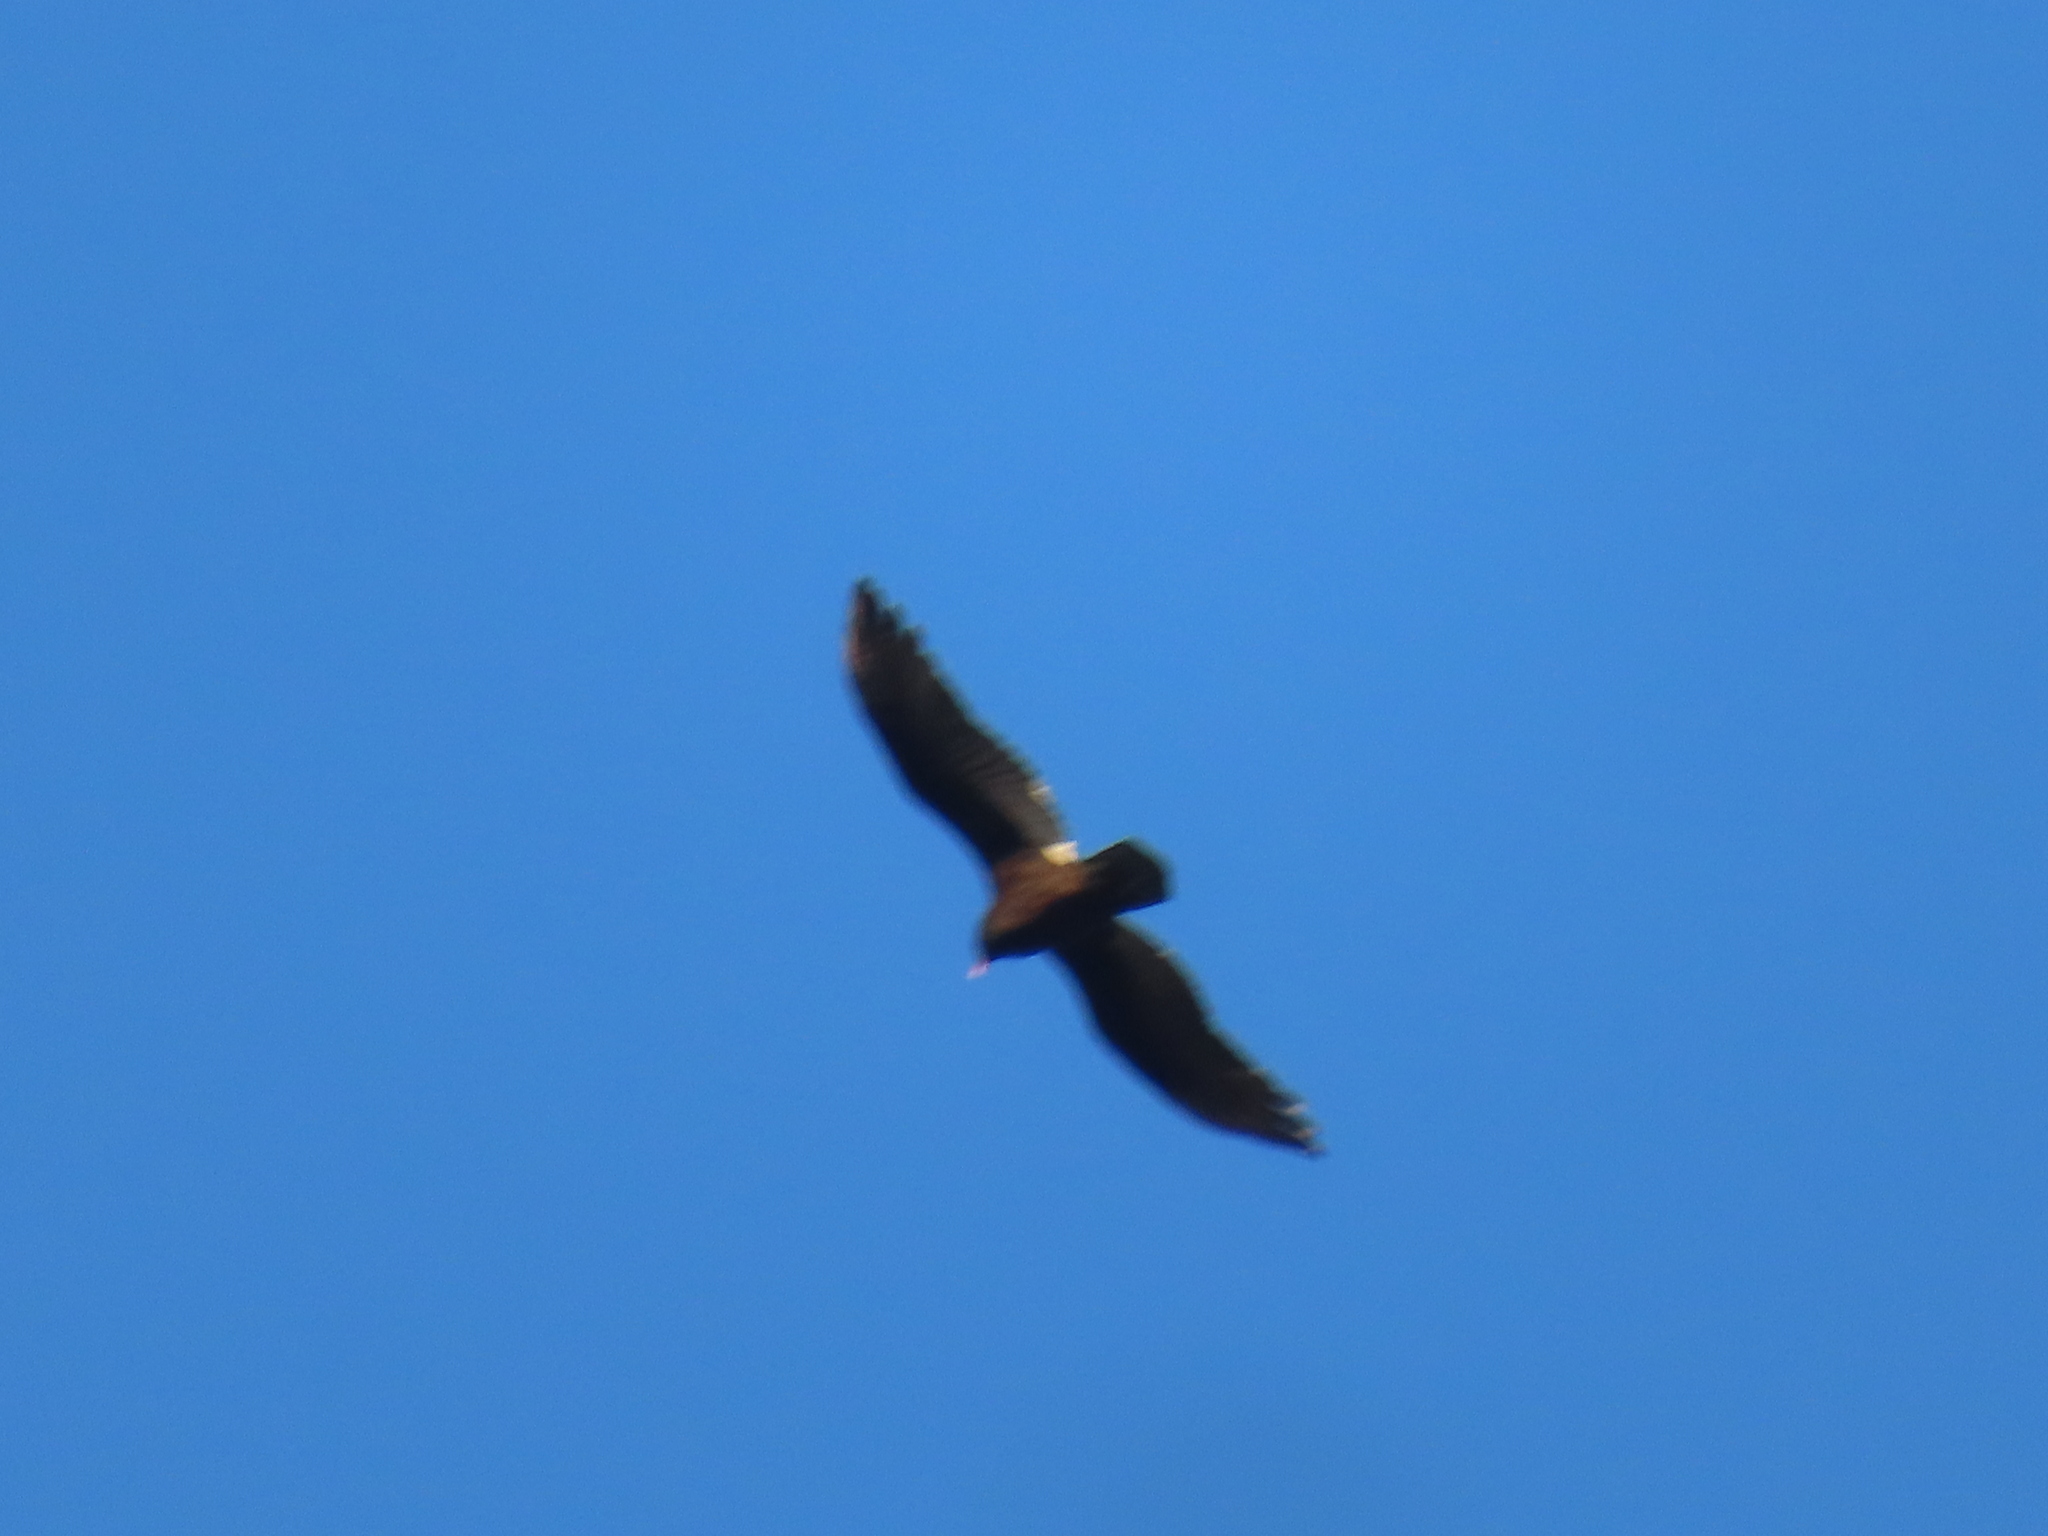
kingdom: Animalia
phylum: Chordata
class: Aves
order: Accipitriformes
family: Cathartidae
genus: Cathartes
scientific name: Cathartes aura
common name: Turkey vulture
